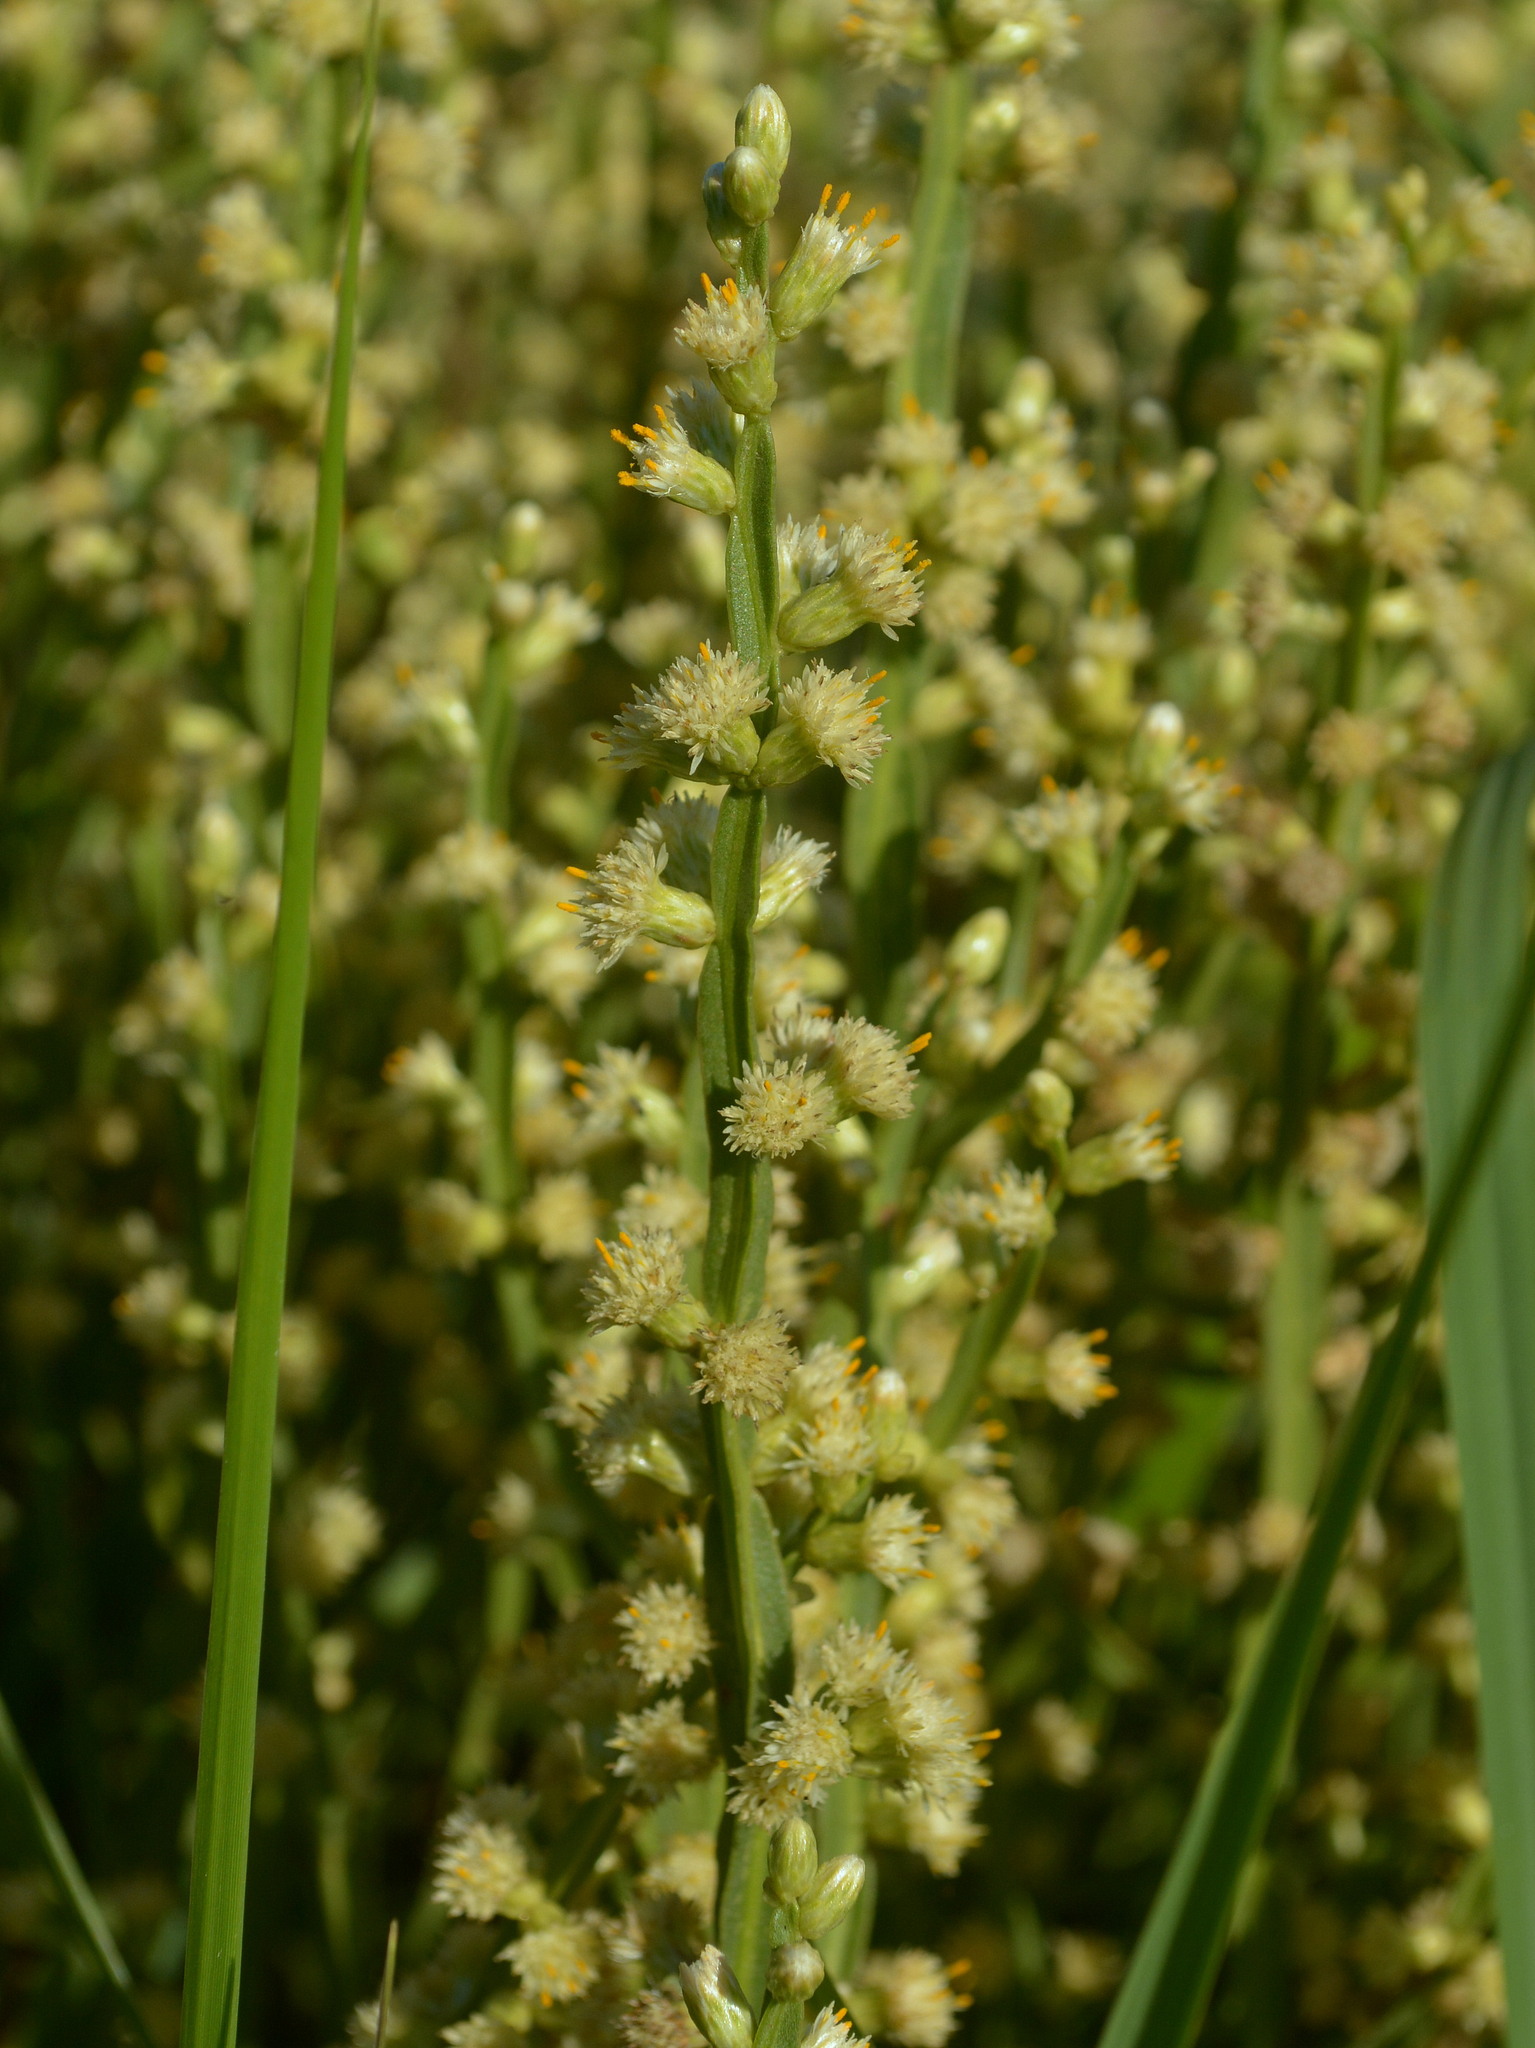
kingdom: Plantae
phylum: Tracheophyta
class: Magnoliopsida
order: Asterales
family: Asteraceae
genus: Baccharis
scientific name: Baccharis trimera
